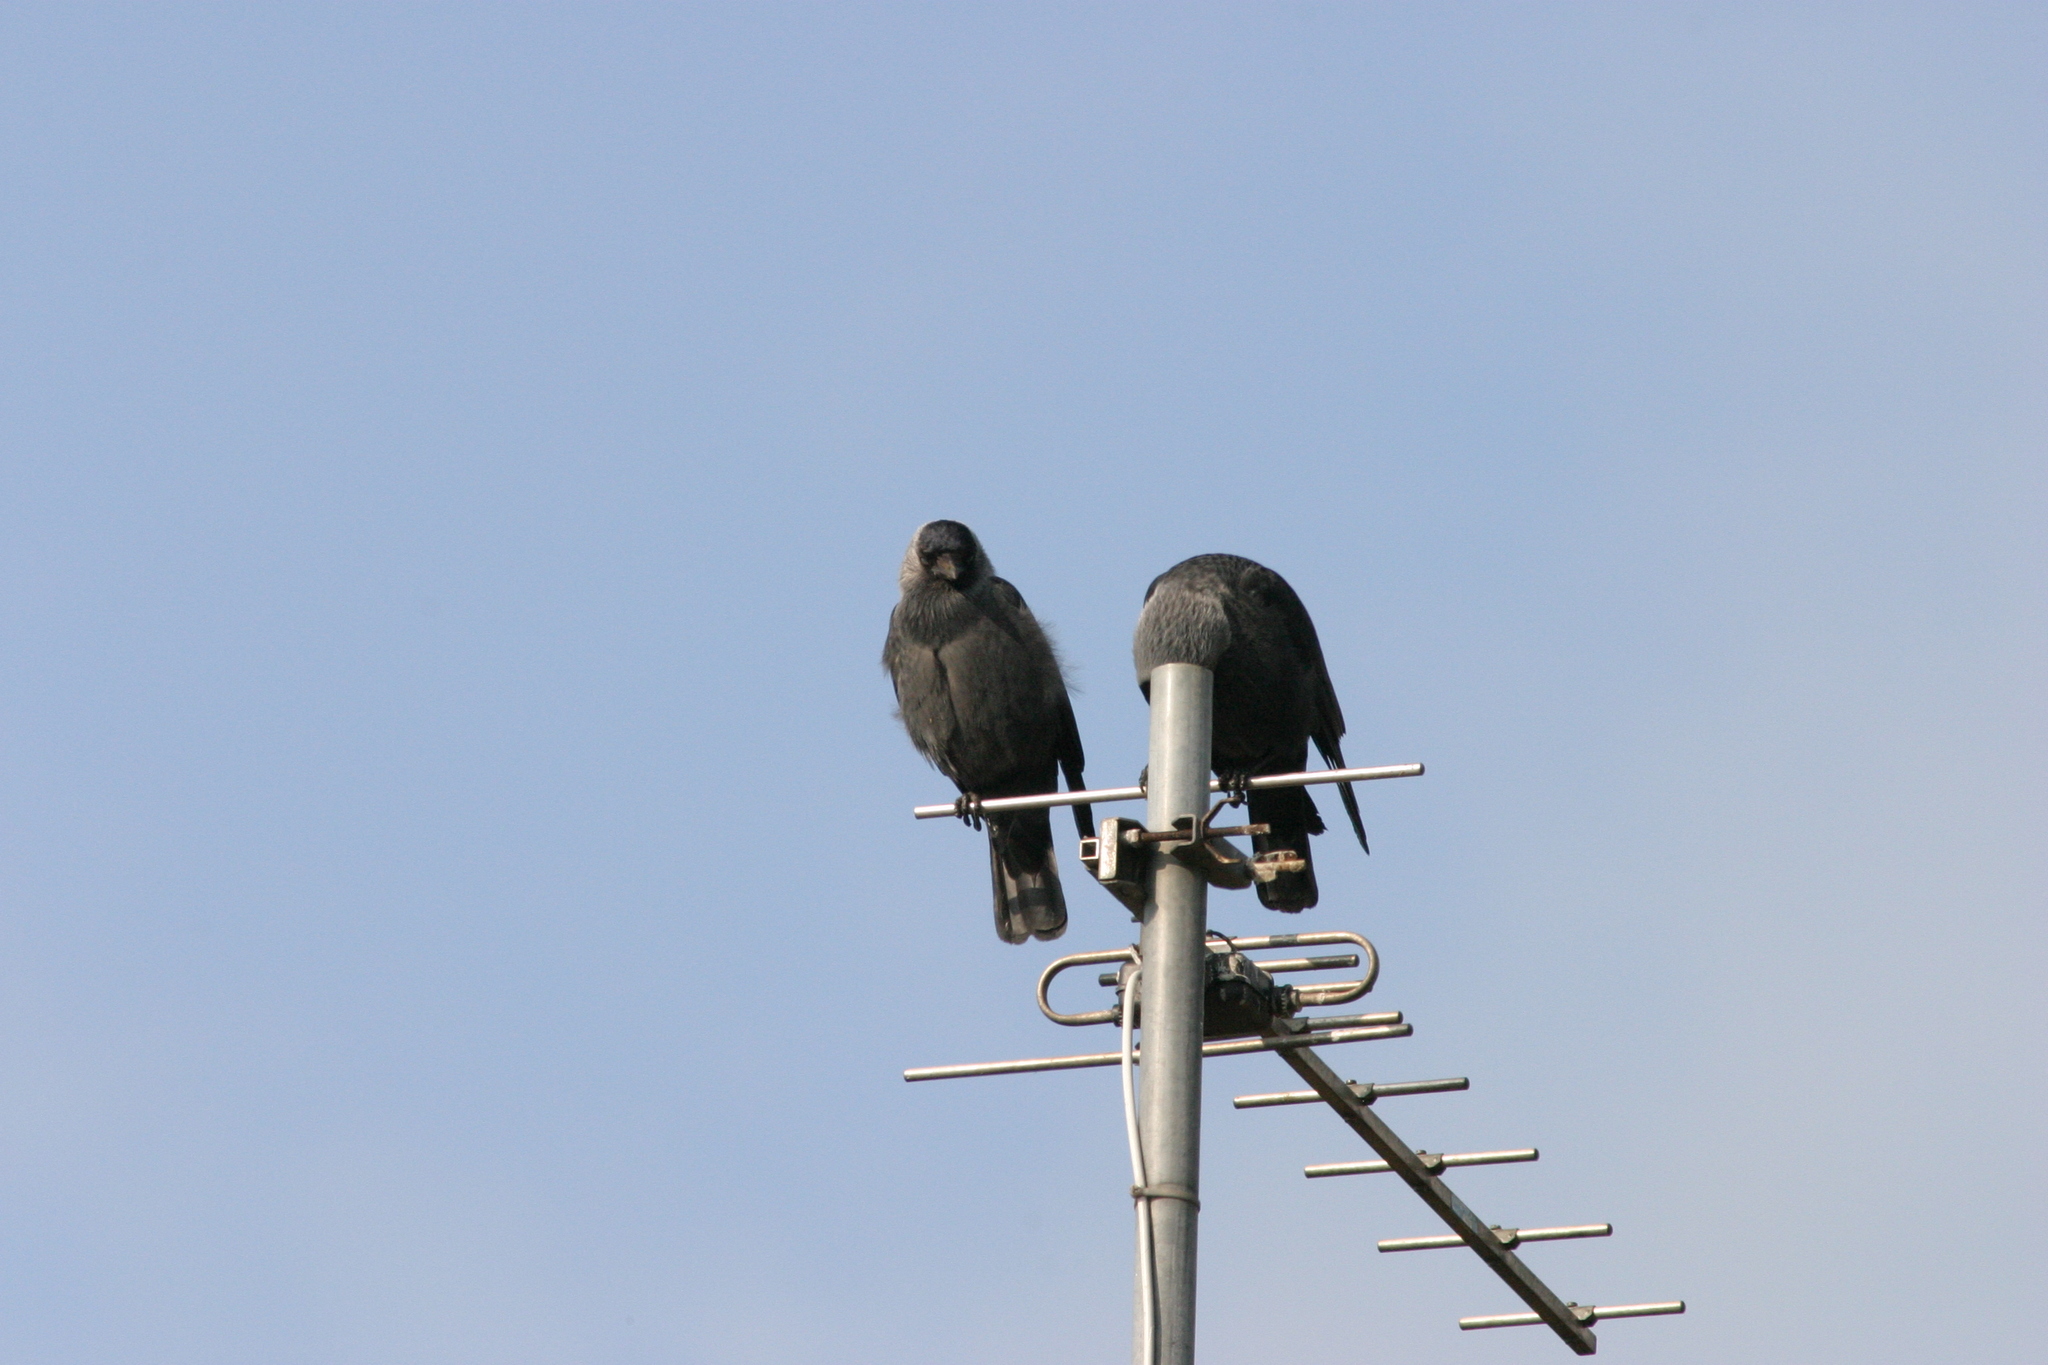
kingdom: Animalia
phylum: Chordata
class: Aves
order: Passeriformes
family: Corvidae
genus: Coloeus
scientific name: Coloeus monedula
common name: Western jackdaw
